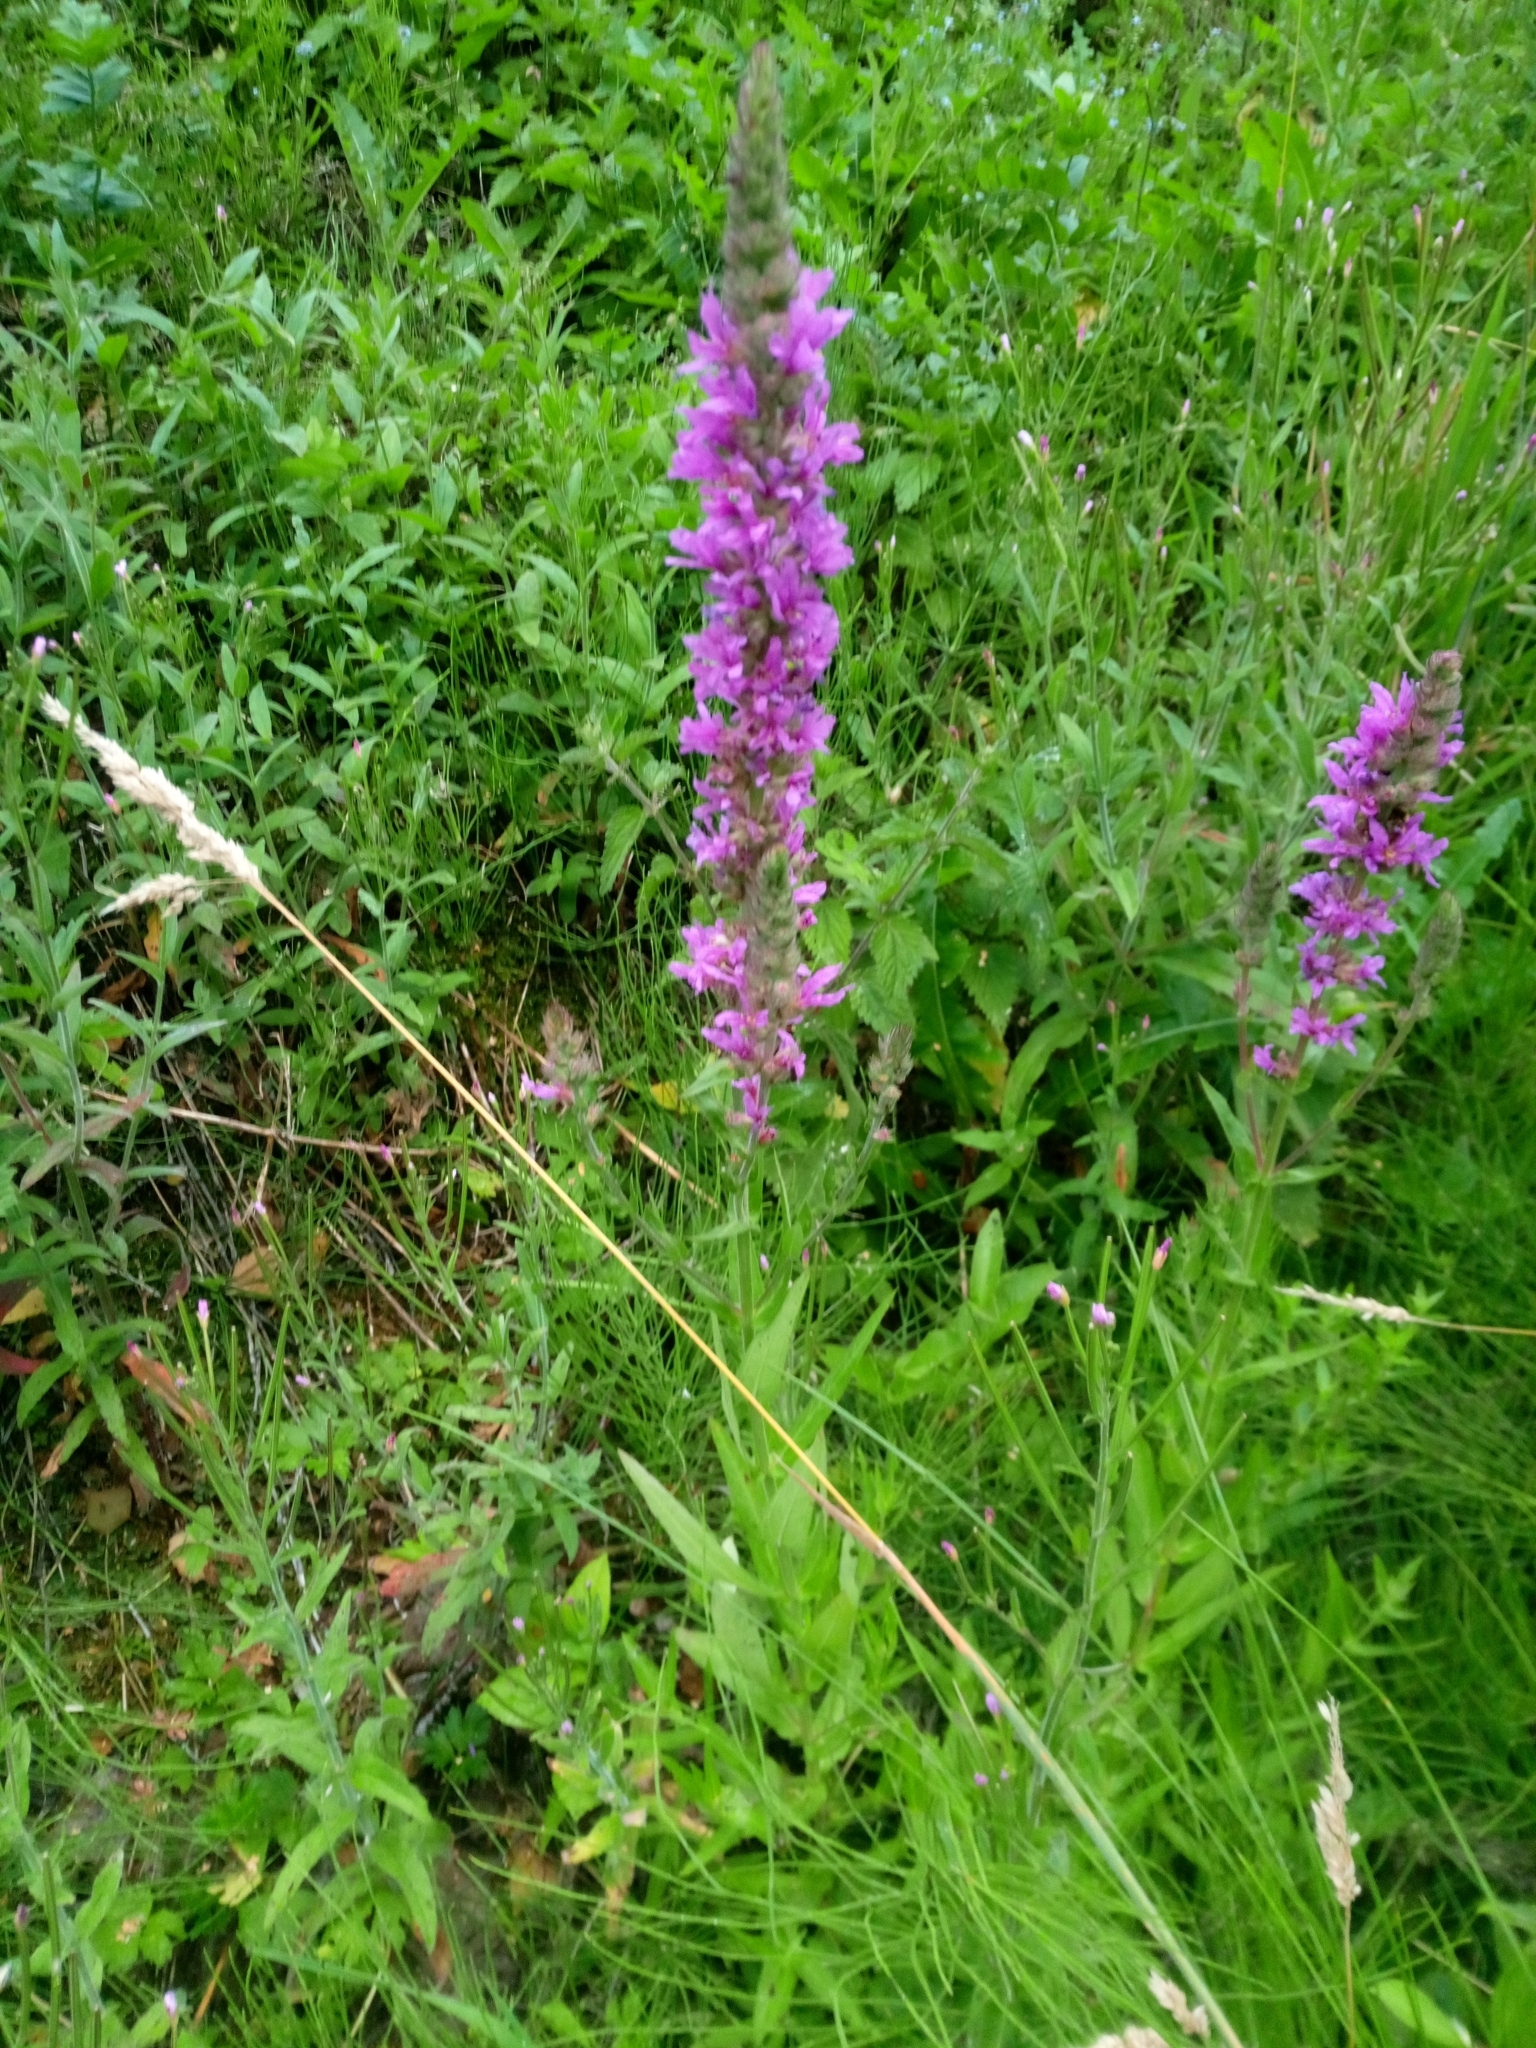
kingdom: Plantae
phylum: Tracheophyta
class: Magnoliopsida
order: Myrtales
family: Lythraceae
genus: Lythrum
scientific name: Lythrum salicaria
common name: Purple loosestrife
